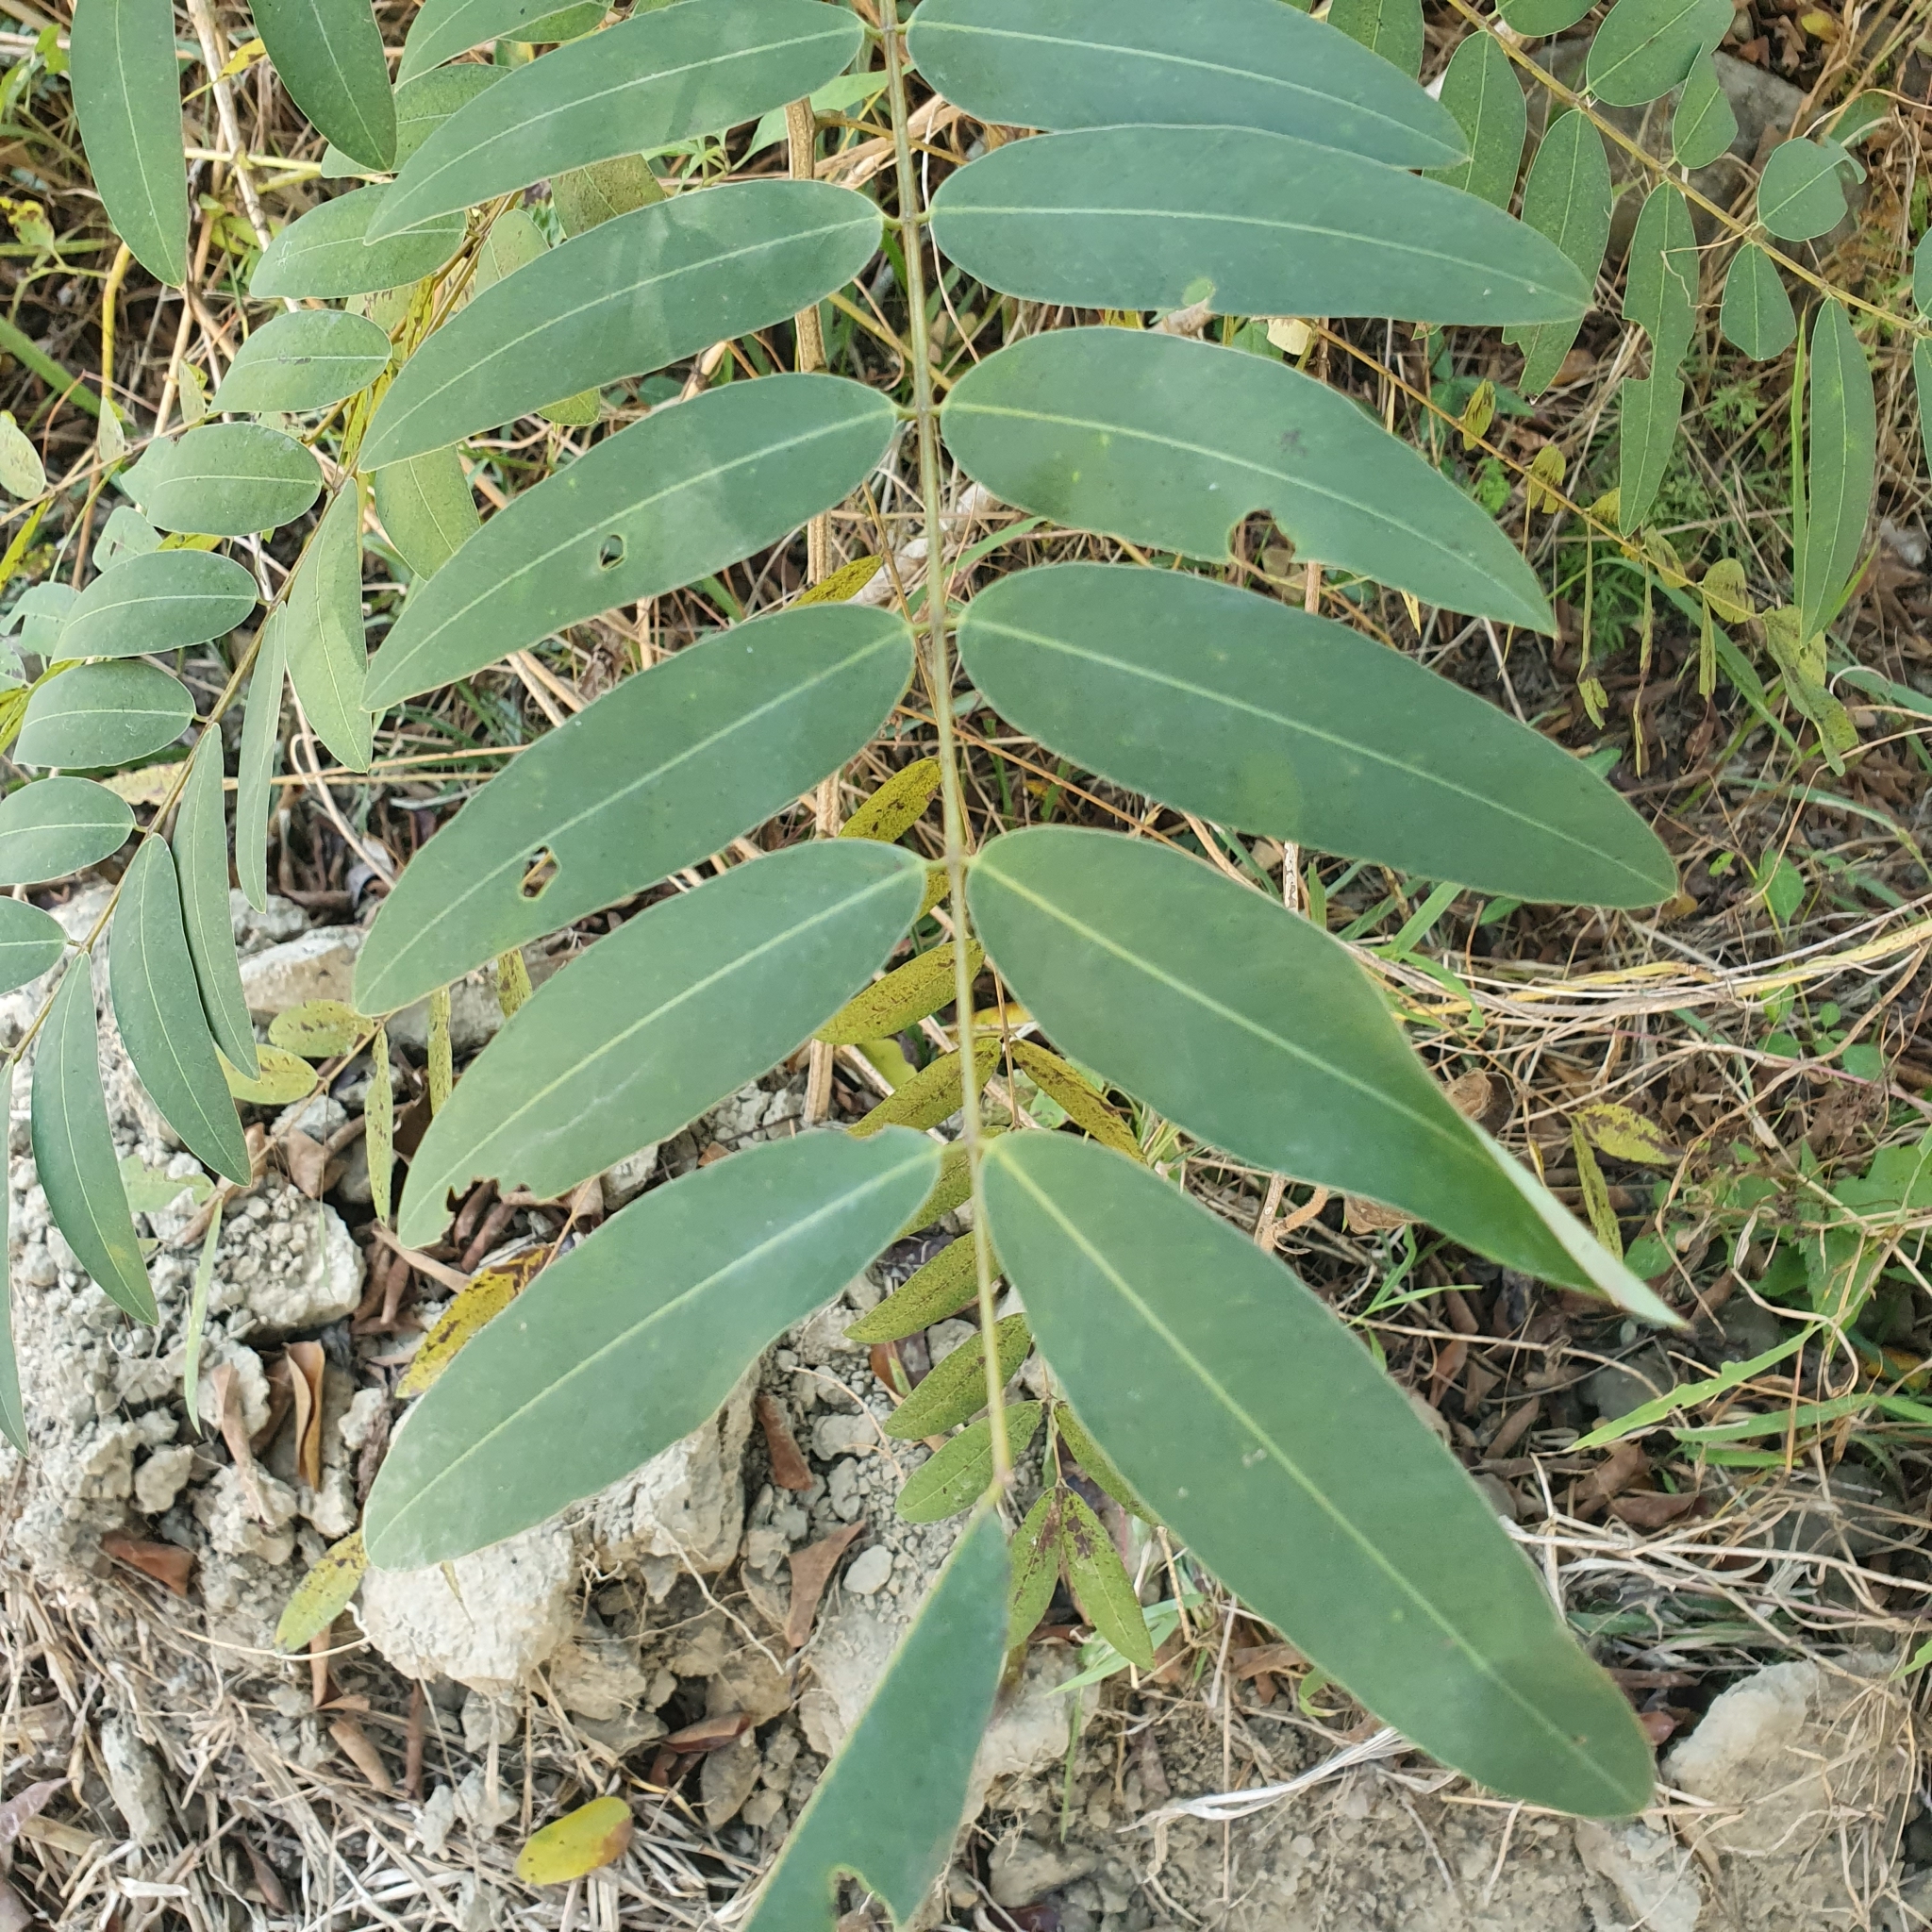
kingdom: Plantae
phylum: Tracheophyta
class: Magnoliopsida
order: Fabales
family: Fabaceae
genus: Senna
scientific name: Senna siamea
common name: Siamese cassia
